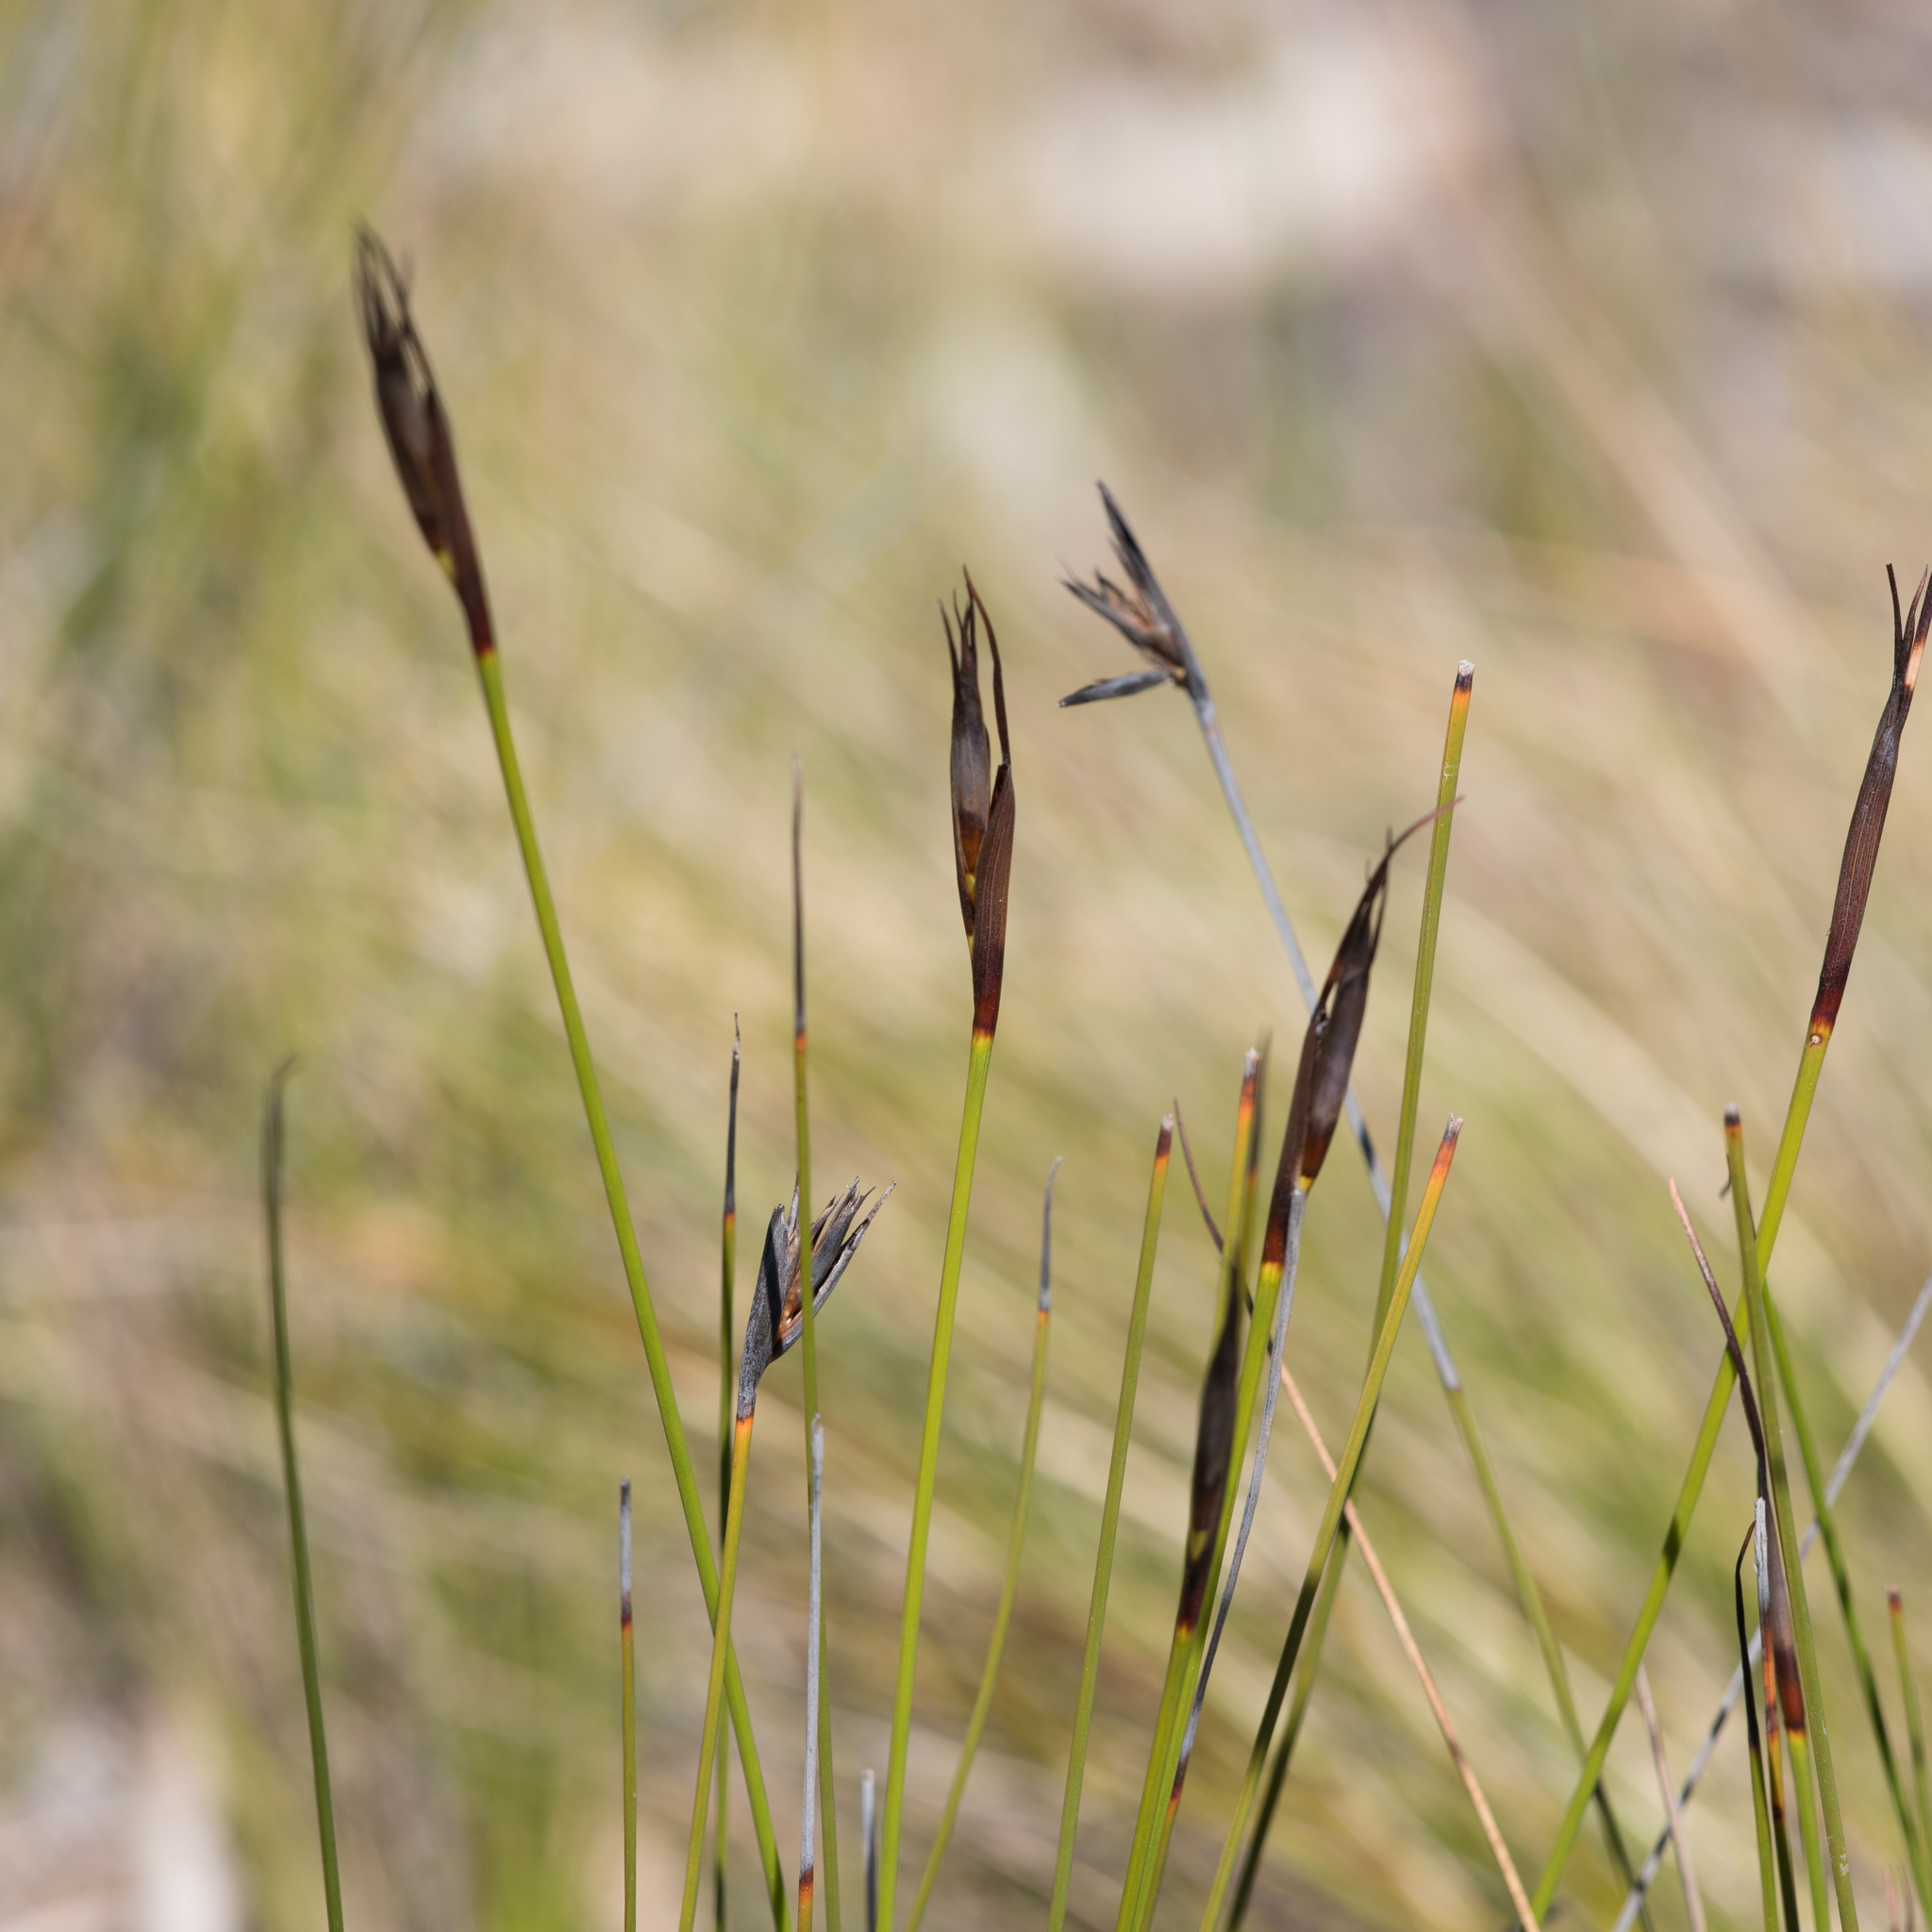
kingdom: Plantae
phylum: Tracheophyta
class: Liliopsida
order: Poales
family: Cyperaceae
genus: Lepidosperma
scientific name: Lepidosperma carphoides
